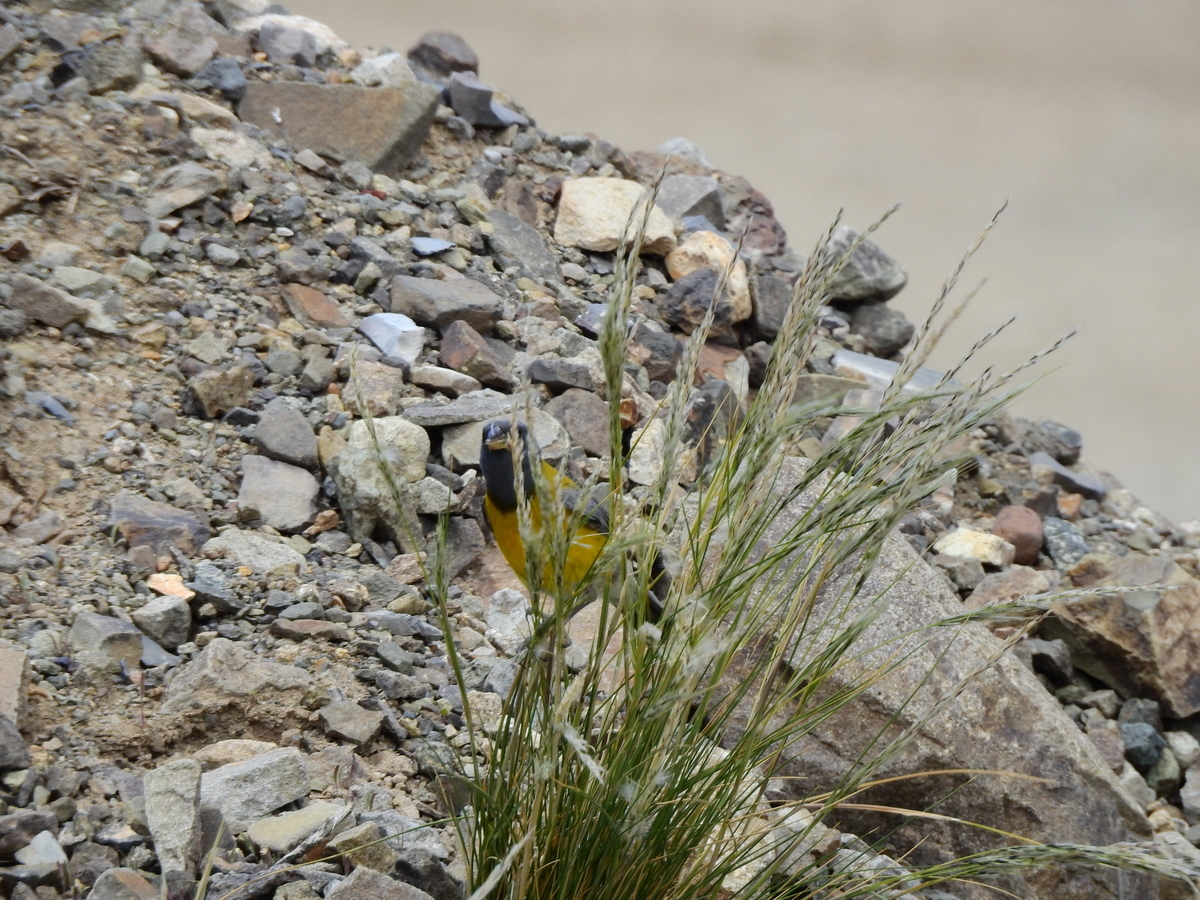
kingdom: Animalia
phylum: Chordata
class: Aves
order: Passeriformes
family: Thraupidae
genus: Phrygilus
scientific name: Phrygilus gayi
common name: Grey-hooded sierra finch
